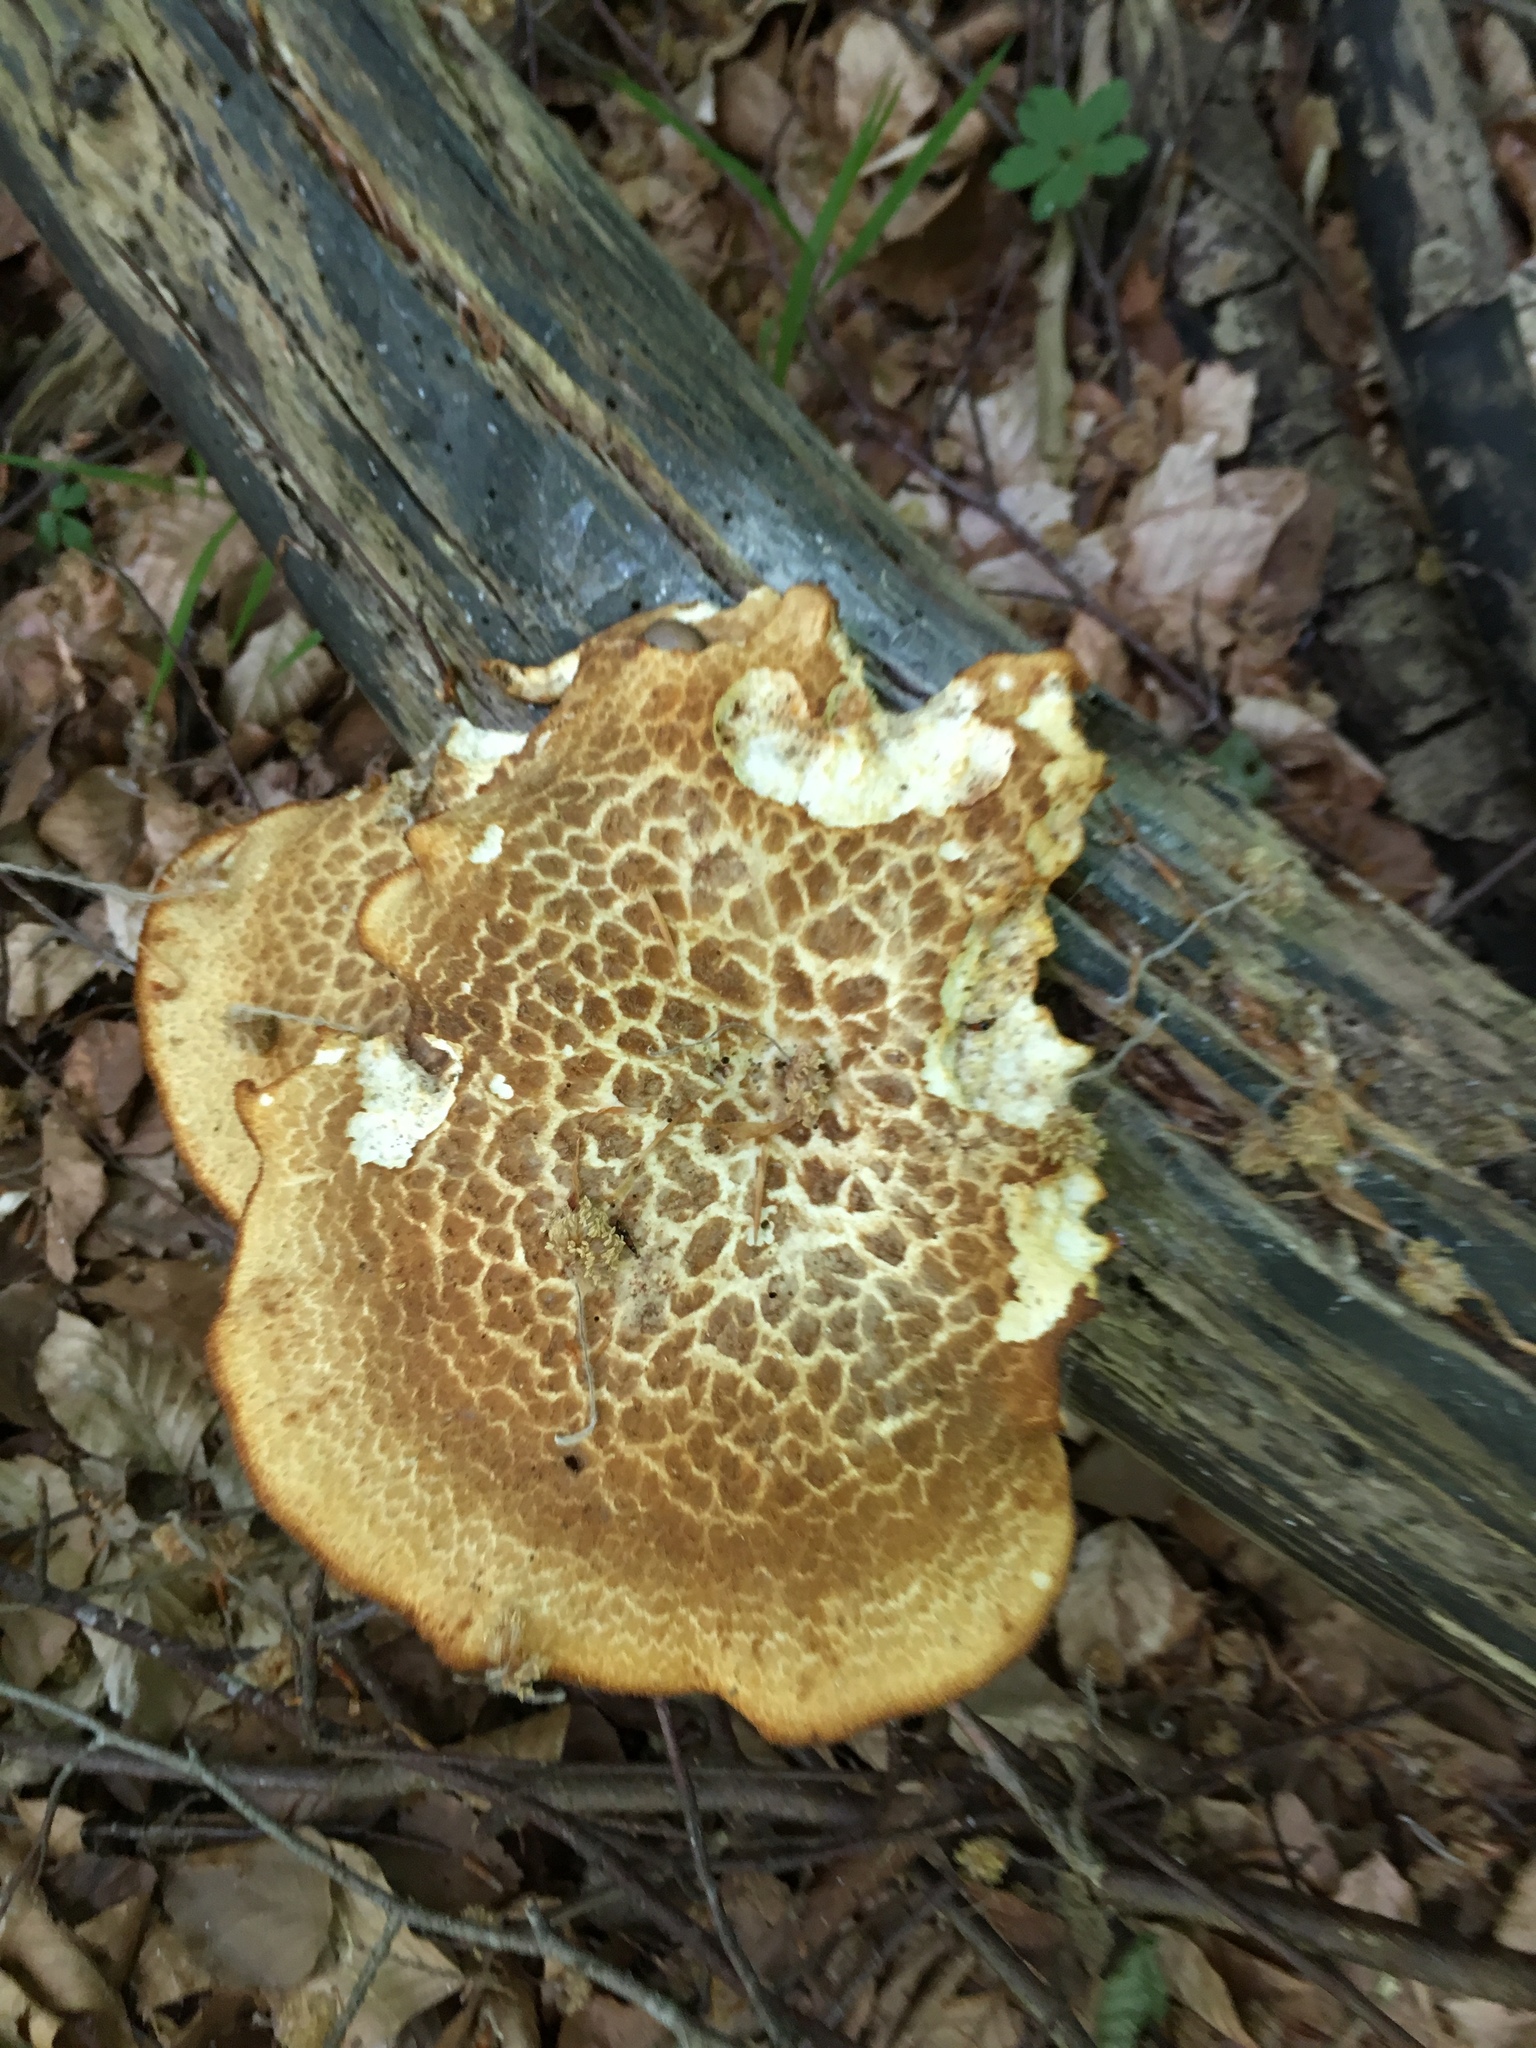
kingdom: Fungi
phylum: Basidiomycota
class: Agaricomycetes
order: Polyporales
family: Polyporaceae
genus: Cerioporus
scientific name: Cerioporus squamosus
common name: Dryad's saddle
